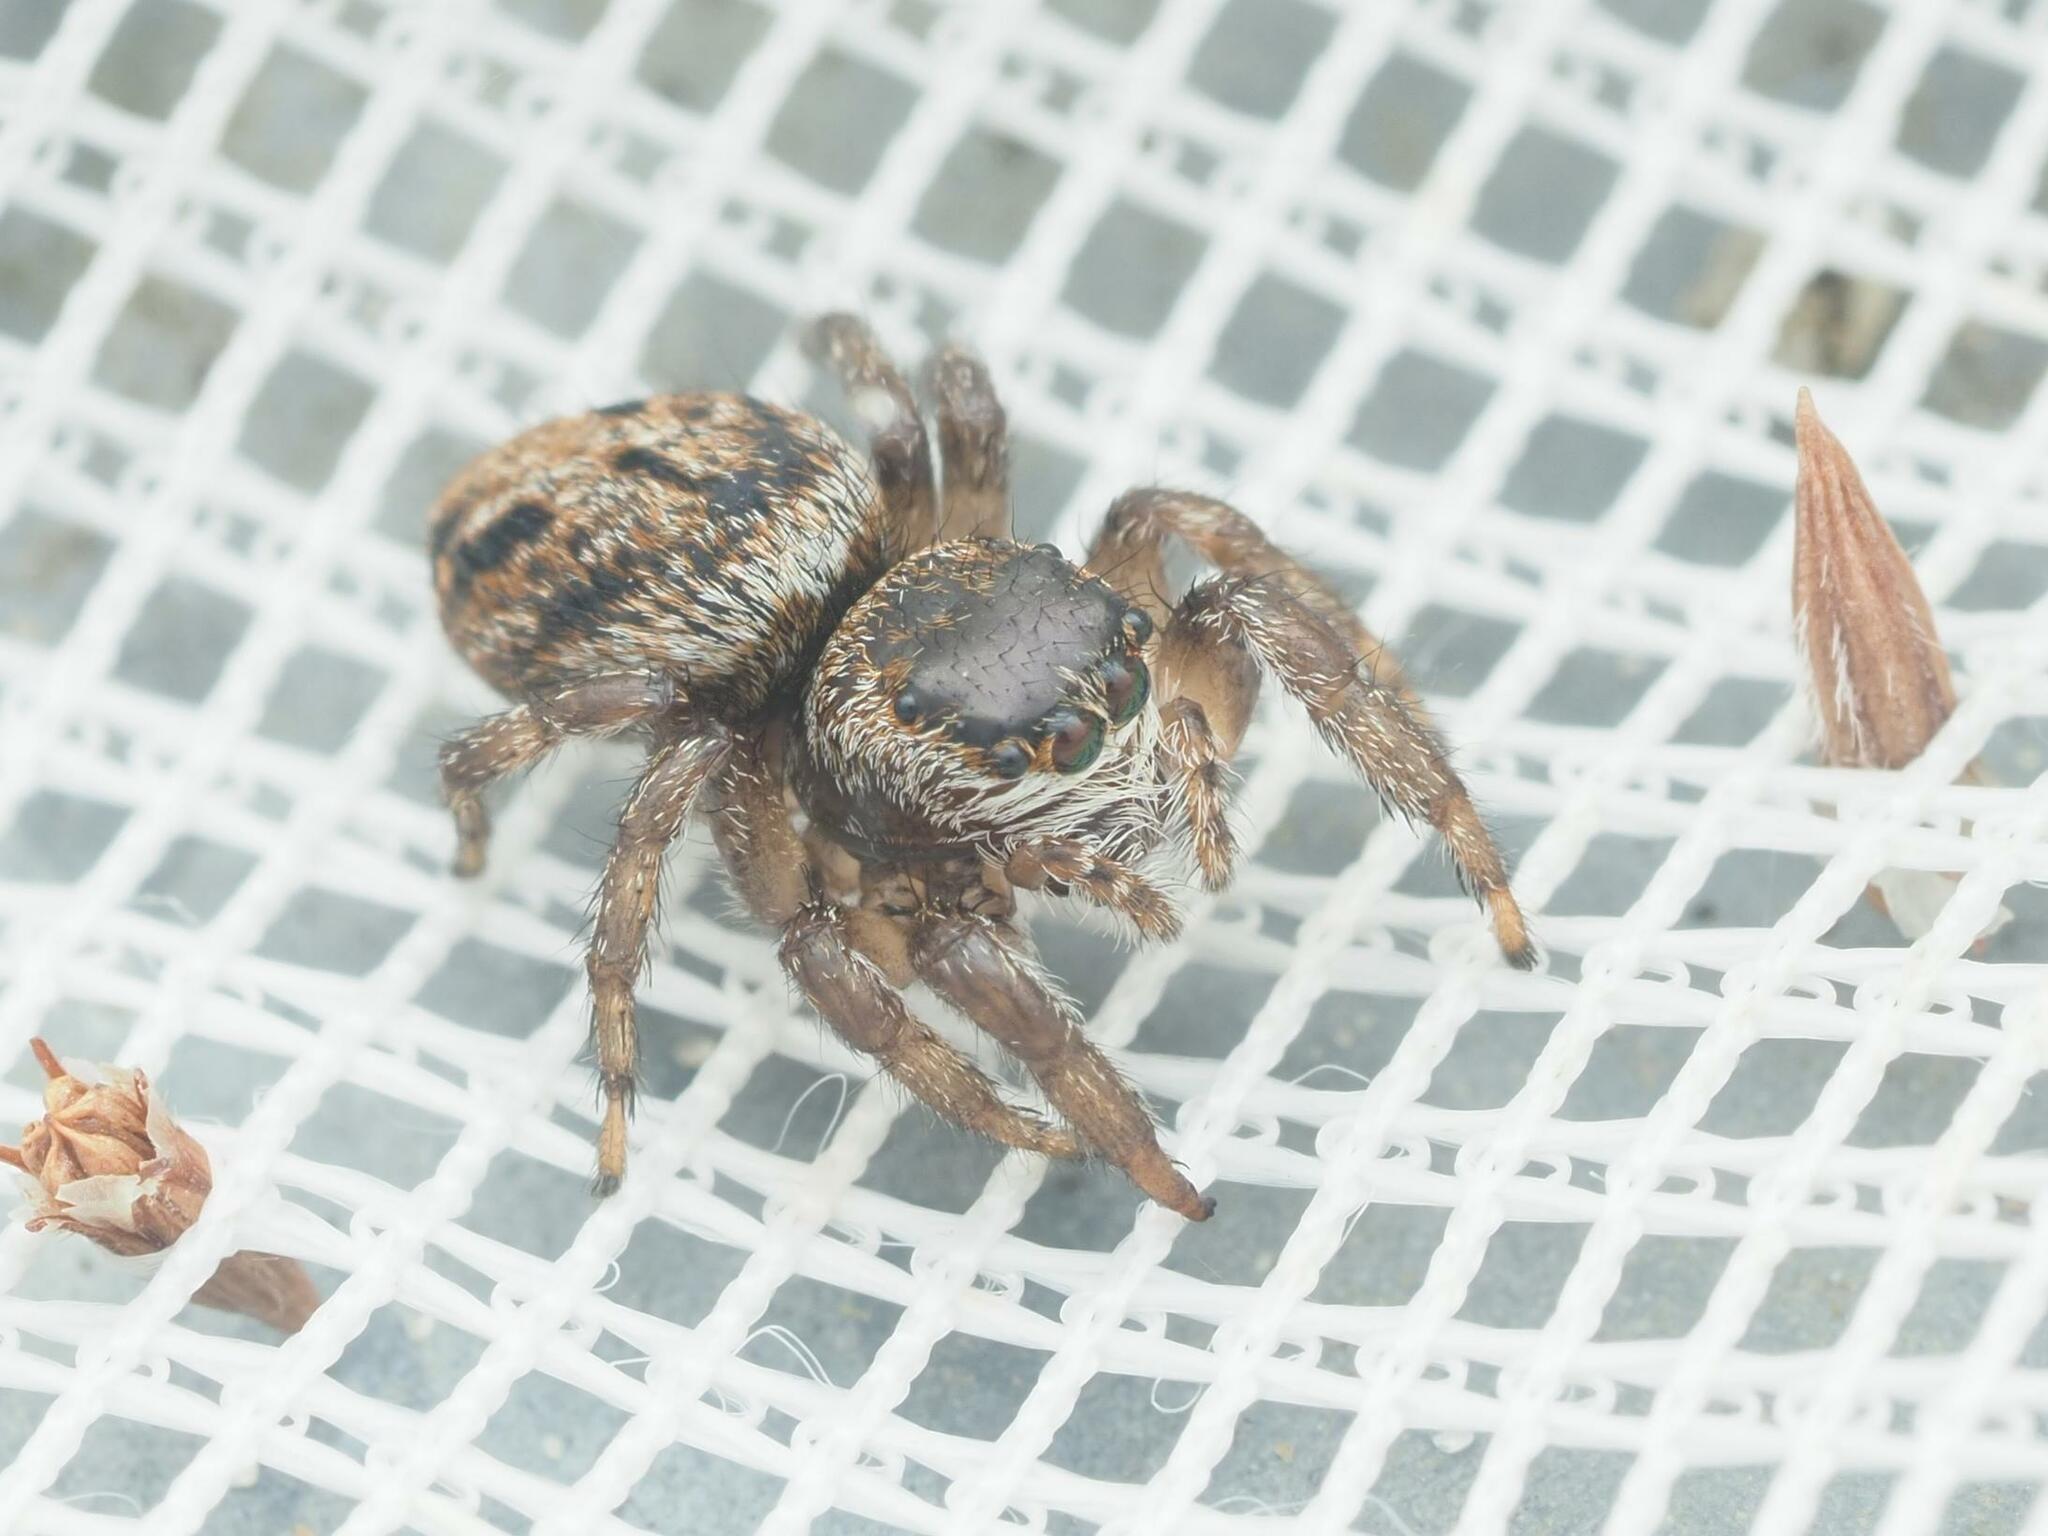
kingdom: Animalia
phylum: Arthropoda
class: Arachnida
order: Araneae
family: Salticidae
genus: Evarcha
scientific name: Evarcha arcuata
